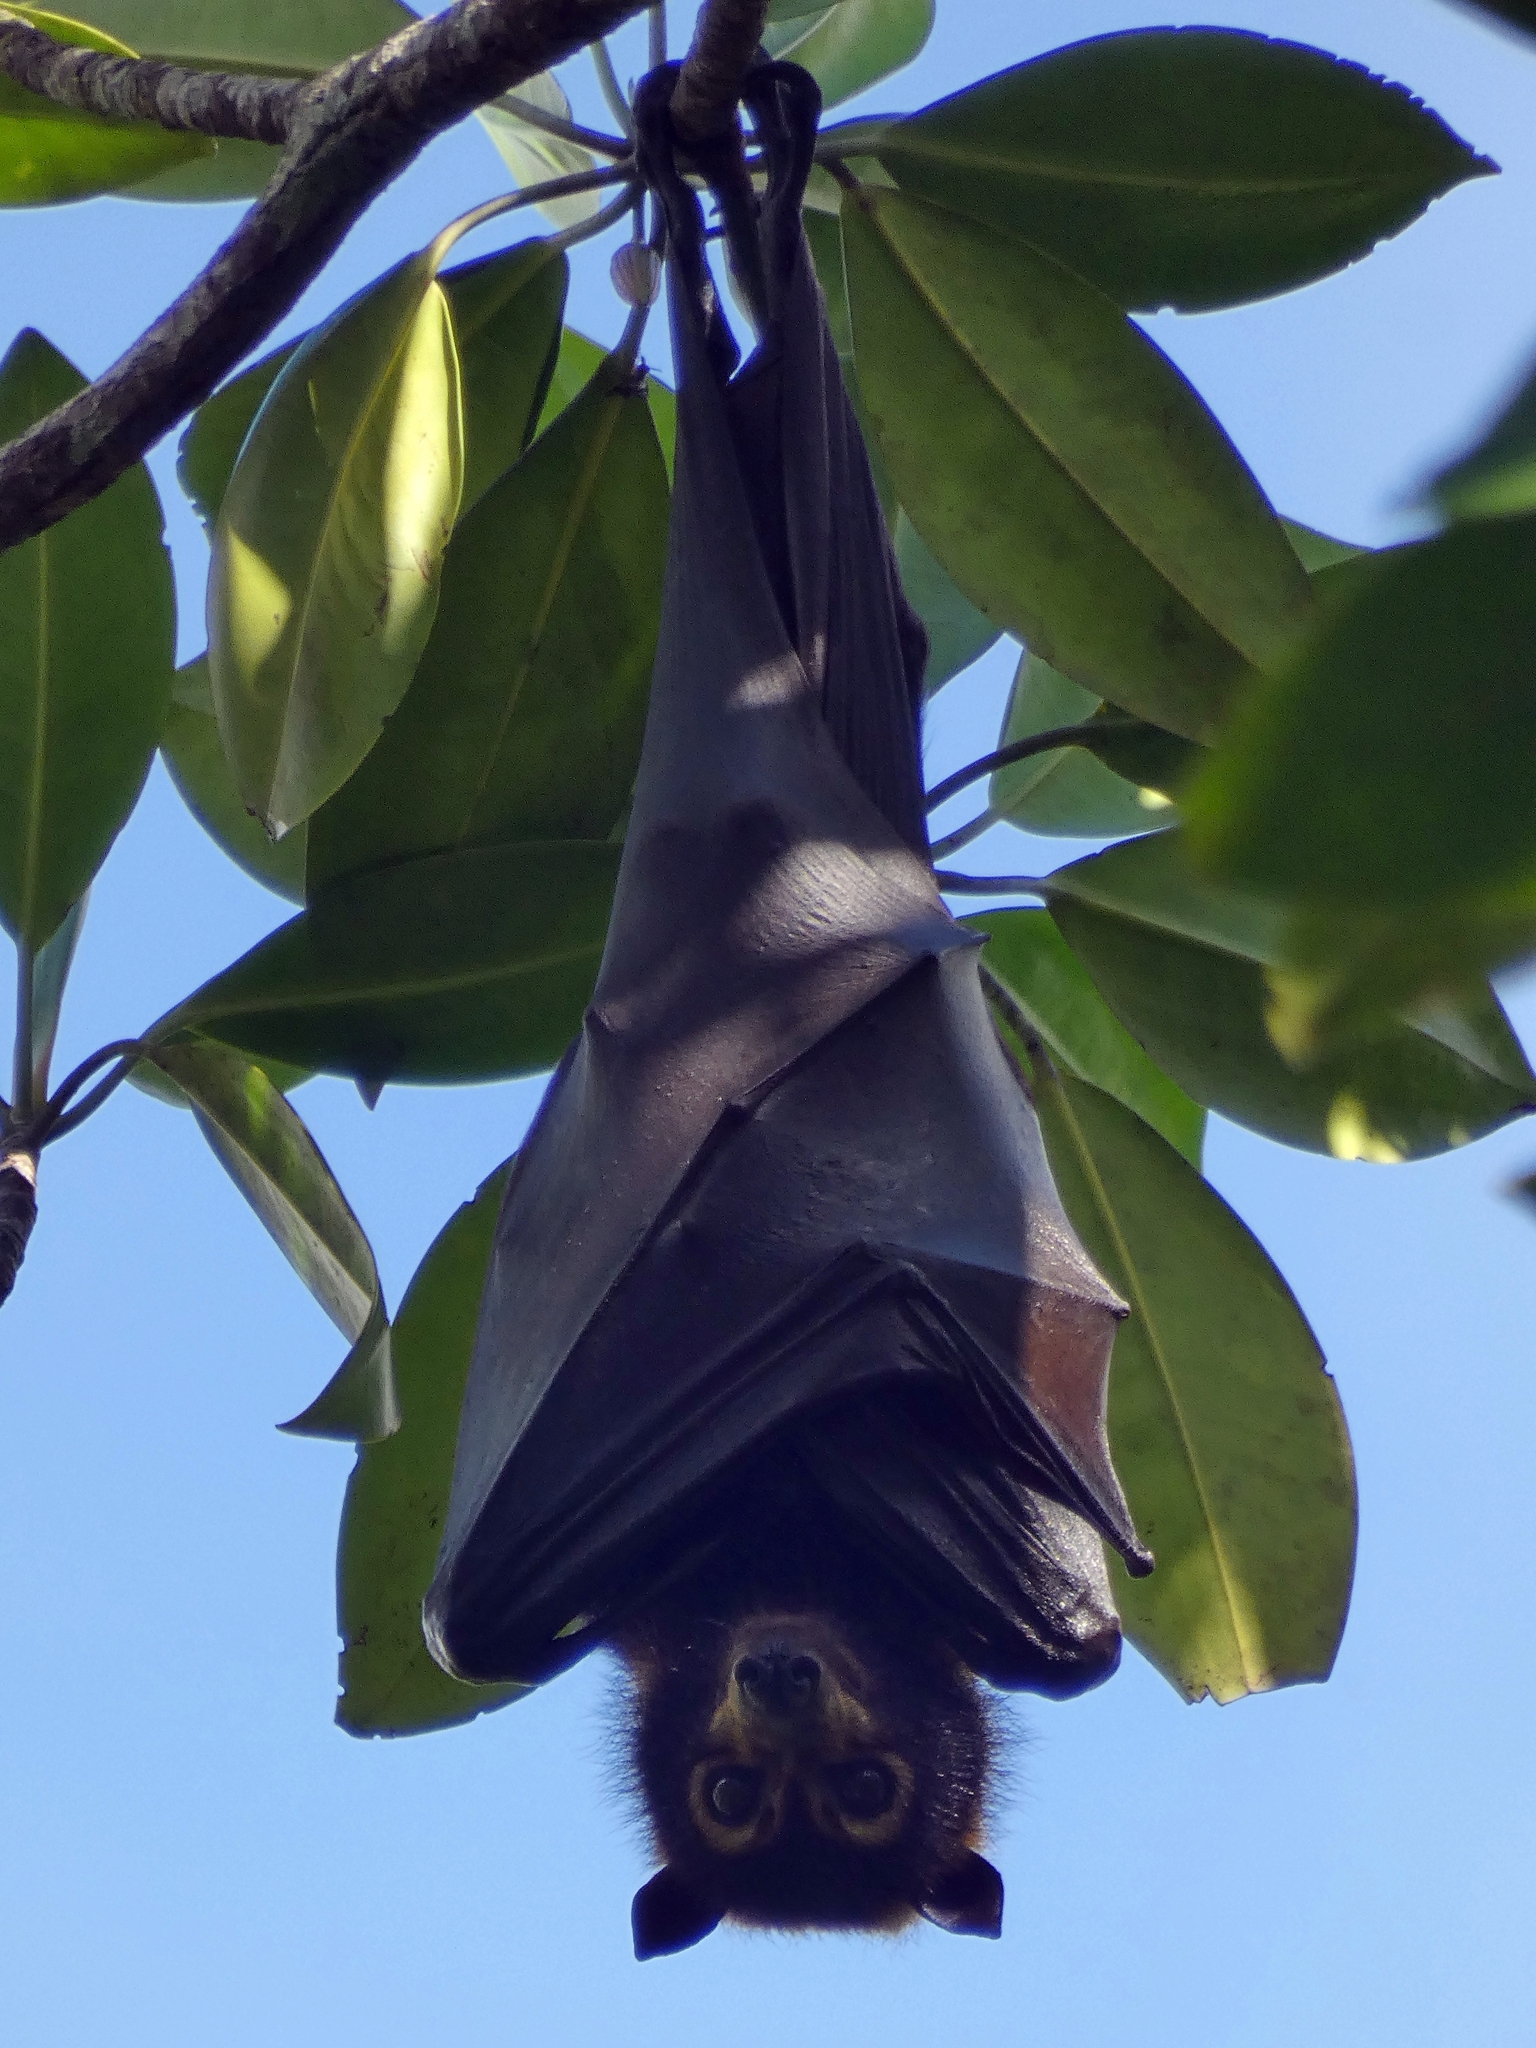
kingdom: Animalia
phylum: Chordata
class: Mammalia
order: Chiroptera
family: Pteropodidae
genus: Pteropus
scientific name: Pteropus conspicillatus
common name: Spectacled flying fox
